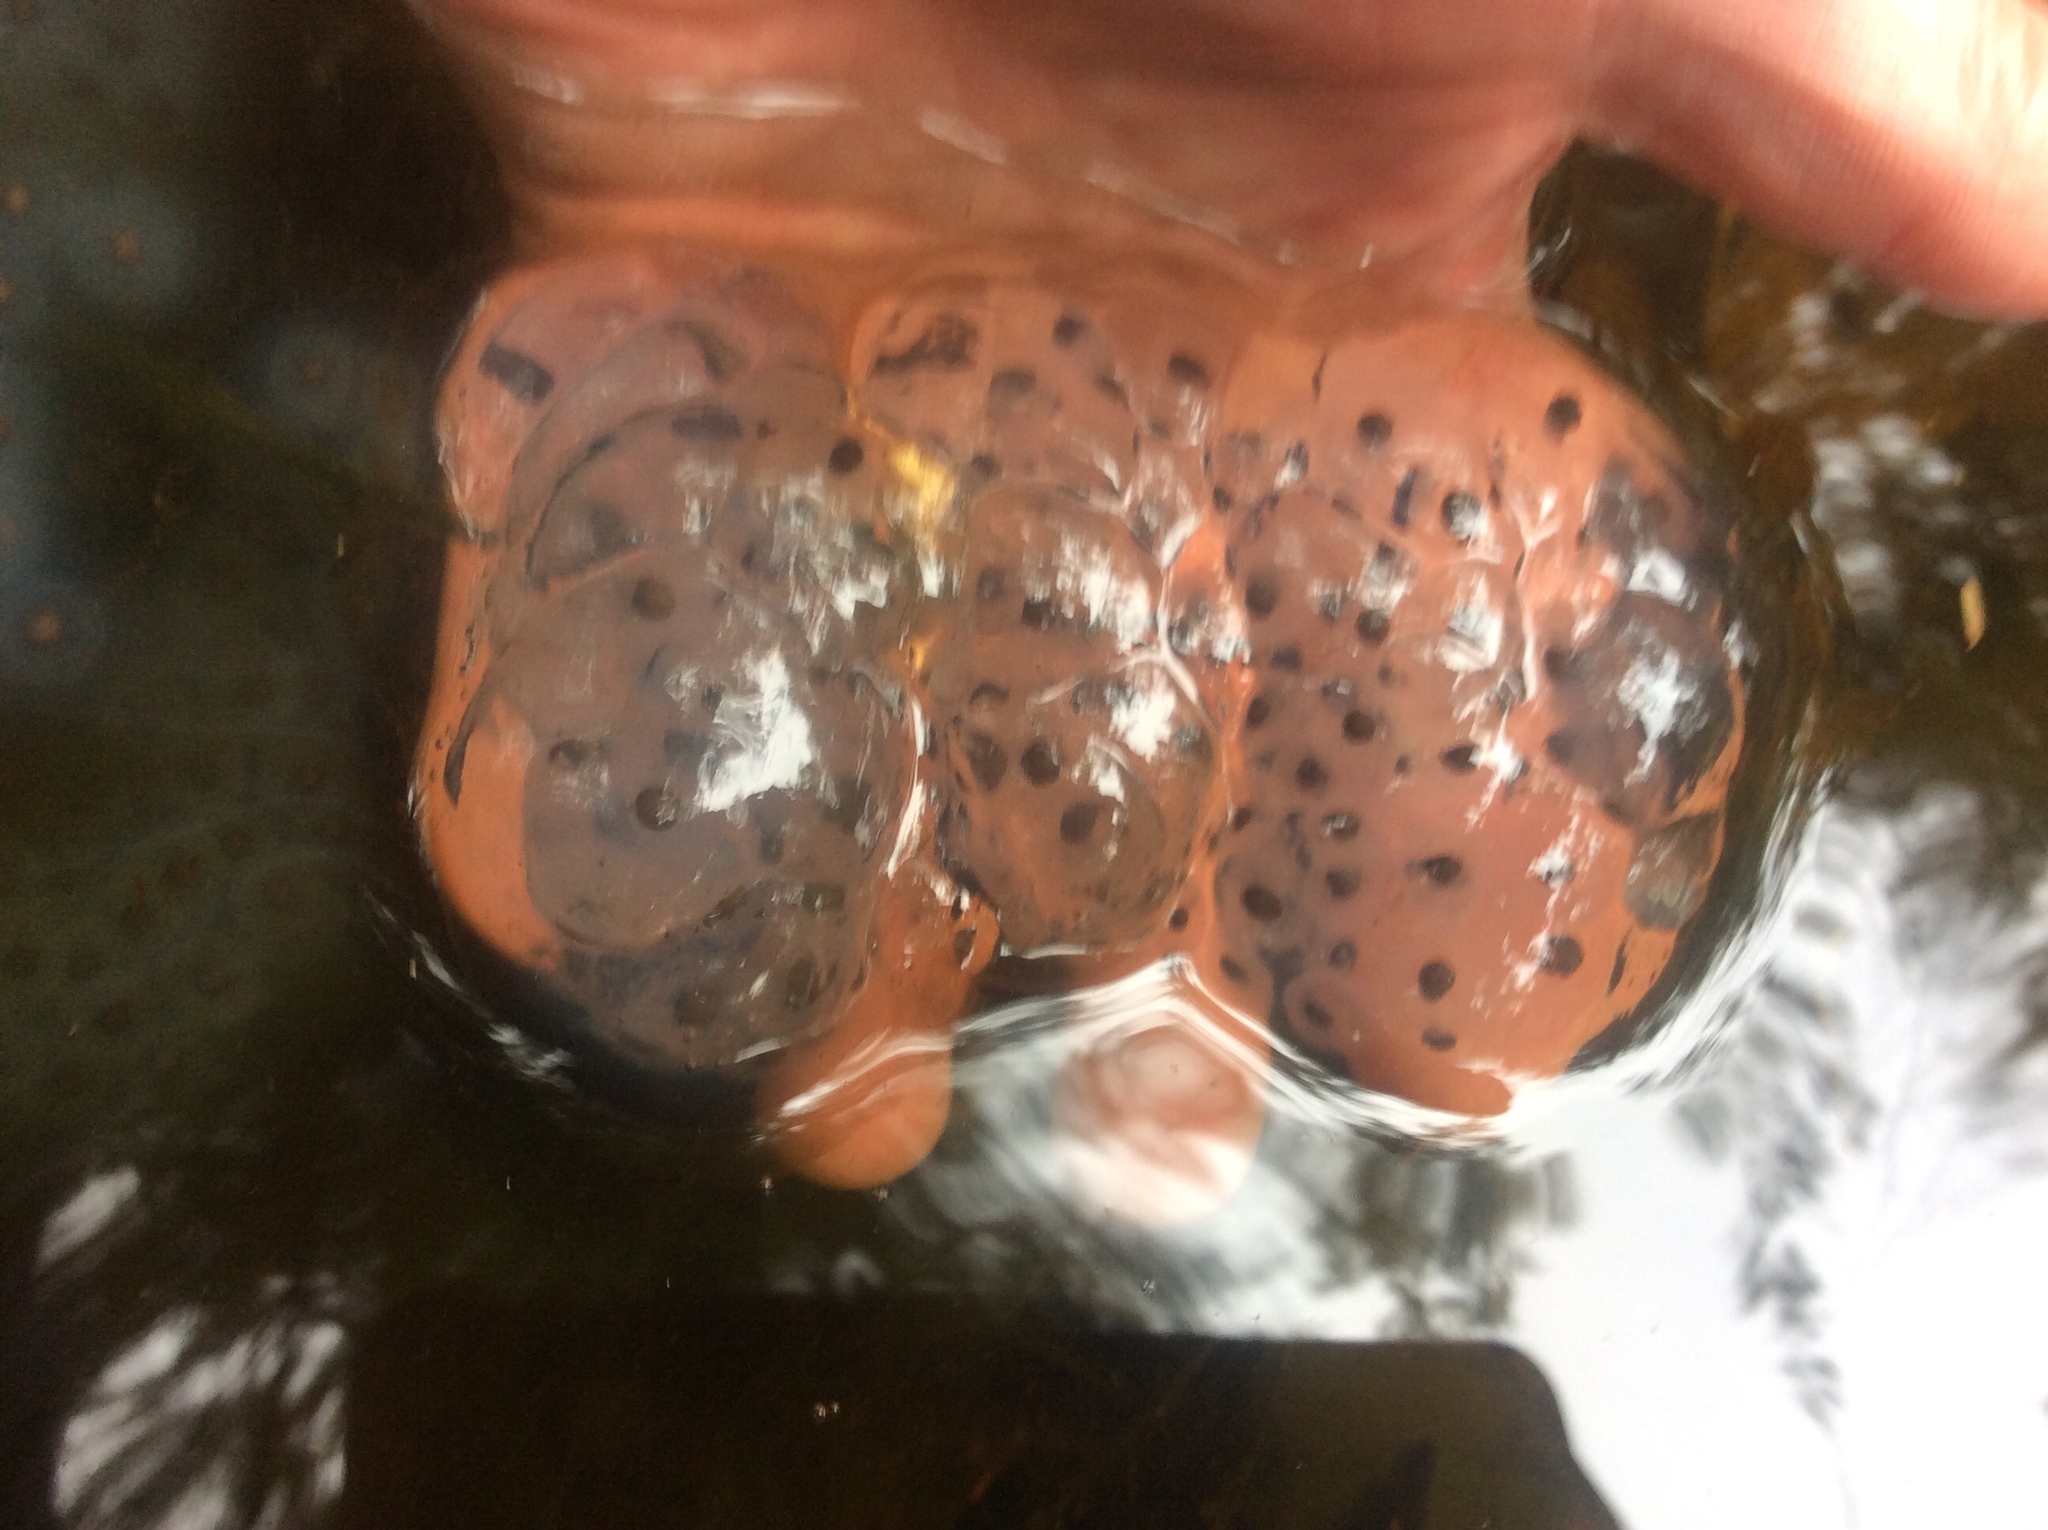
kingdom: Animalia
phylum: Chordata
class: Amphibia
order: Caudata
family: Ambystomatidae
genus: Ambystoma
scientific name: Ambystoma maculatum
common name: Spotted salamander
